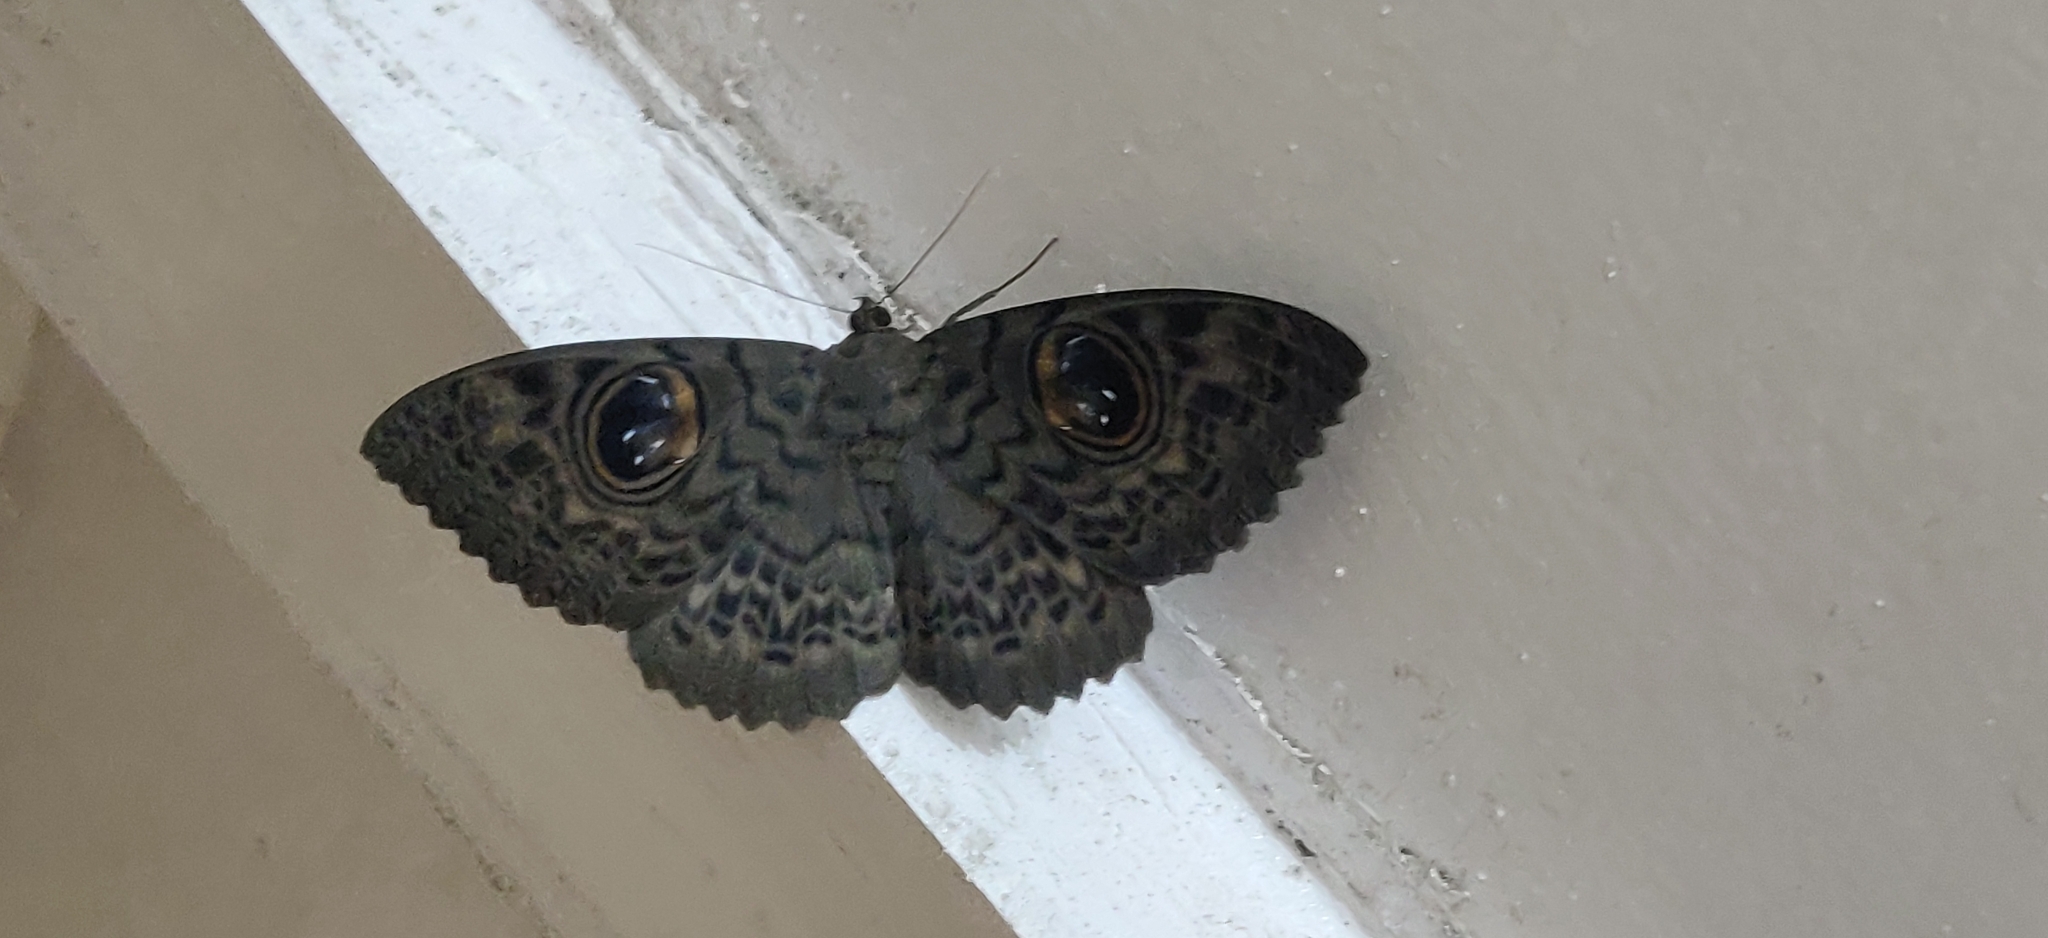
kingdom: Animalia
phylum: Arthropoda
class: Insecta
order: Lepidoptera
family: Erebidae
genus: Erebus
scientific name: Erebus macrops
